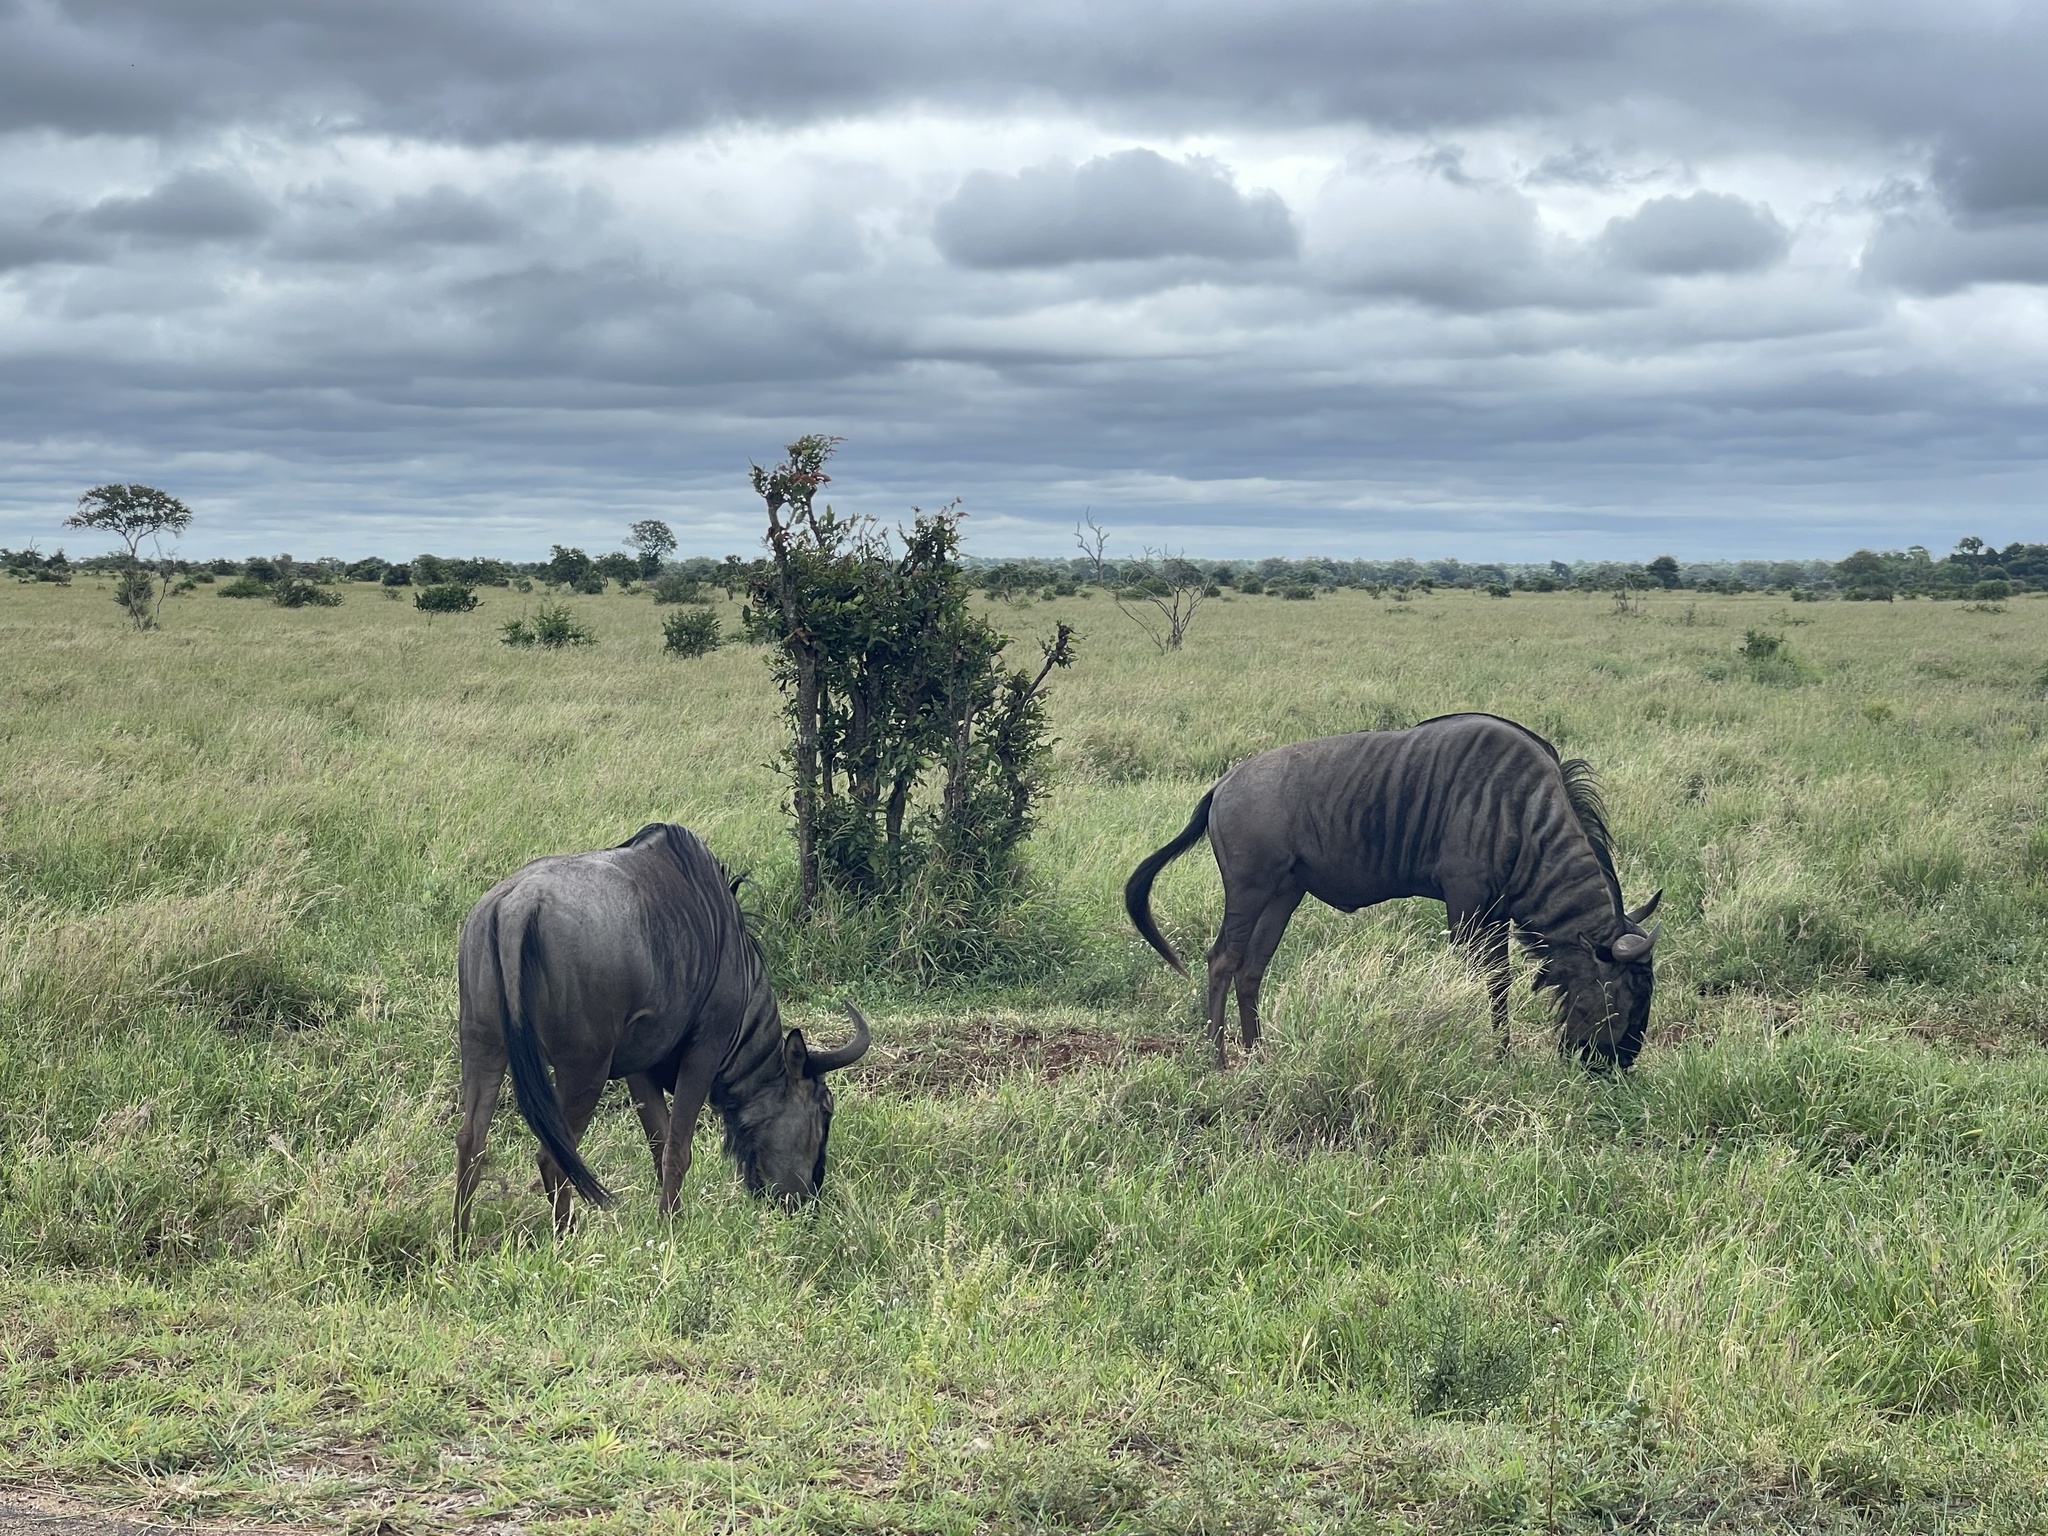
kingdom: Animalia
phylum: Chordata
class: Mammalia
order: Artiodactyla
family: Bovidae
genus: Connochaetes
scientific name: Connochaetes taurinus
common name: Blue wildebeest
